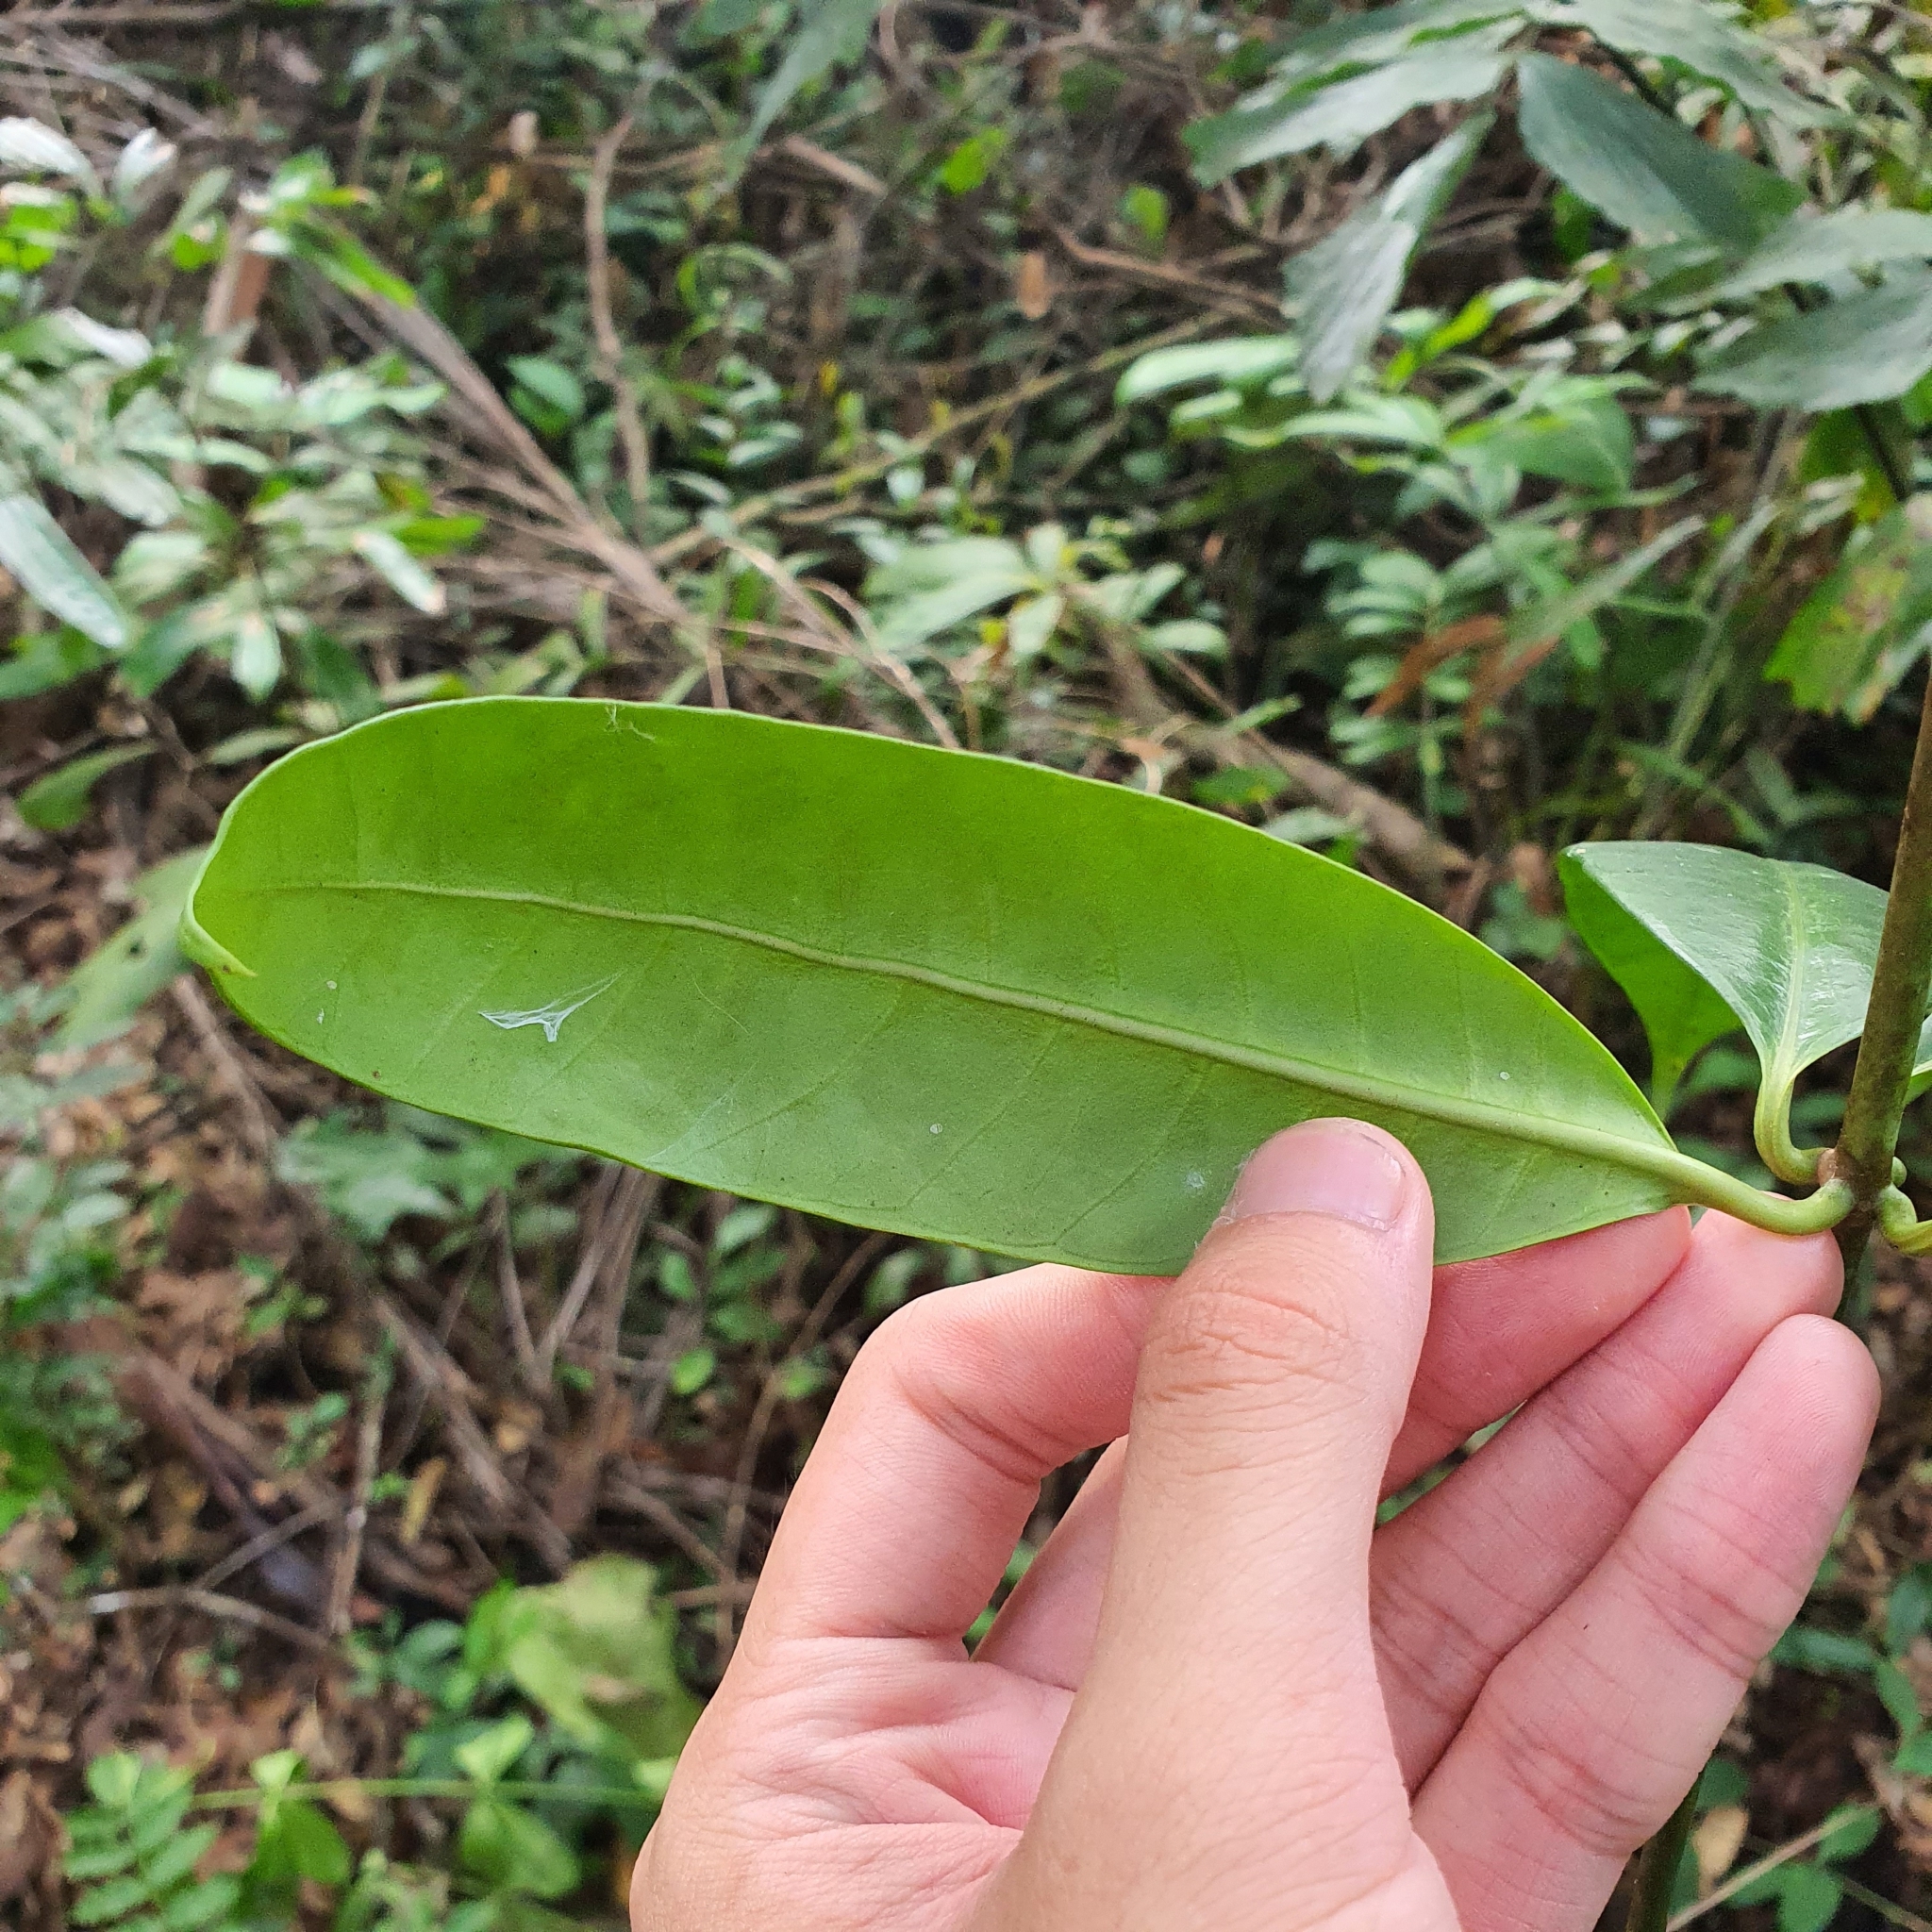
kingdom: Plantae
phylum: Tracheophyta
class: Magnoliopsida
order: Gentianales
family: Apocynaceae
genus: Alyxia
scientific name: Alyxia reinwardtii
